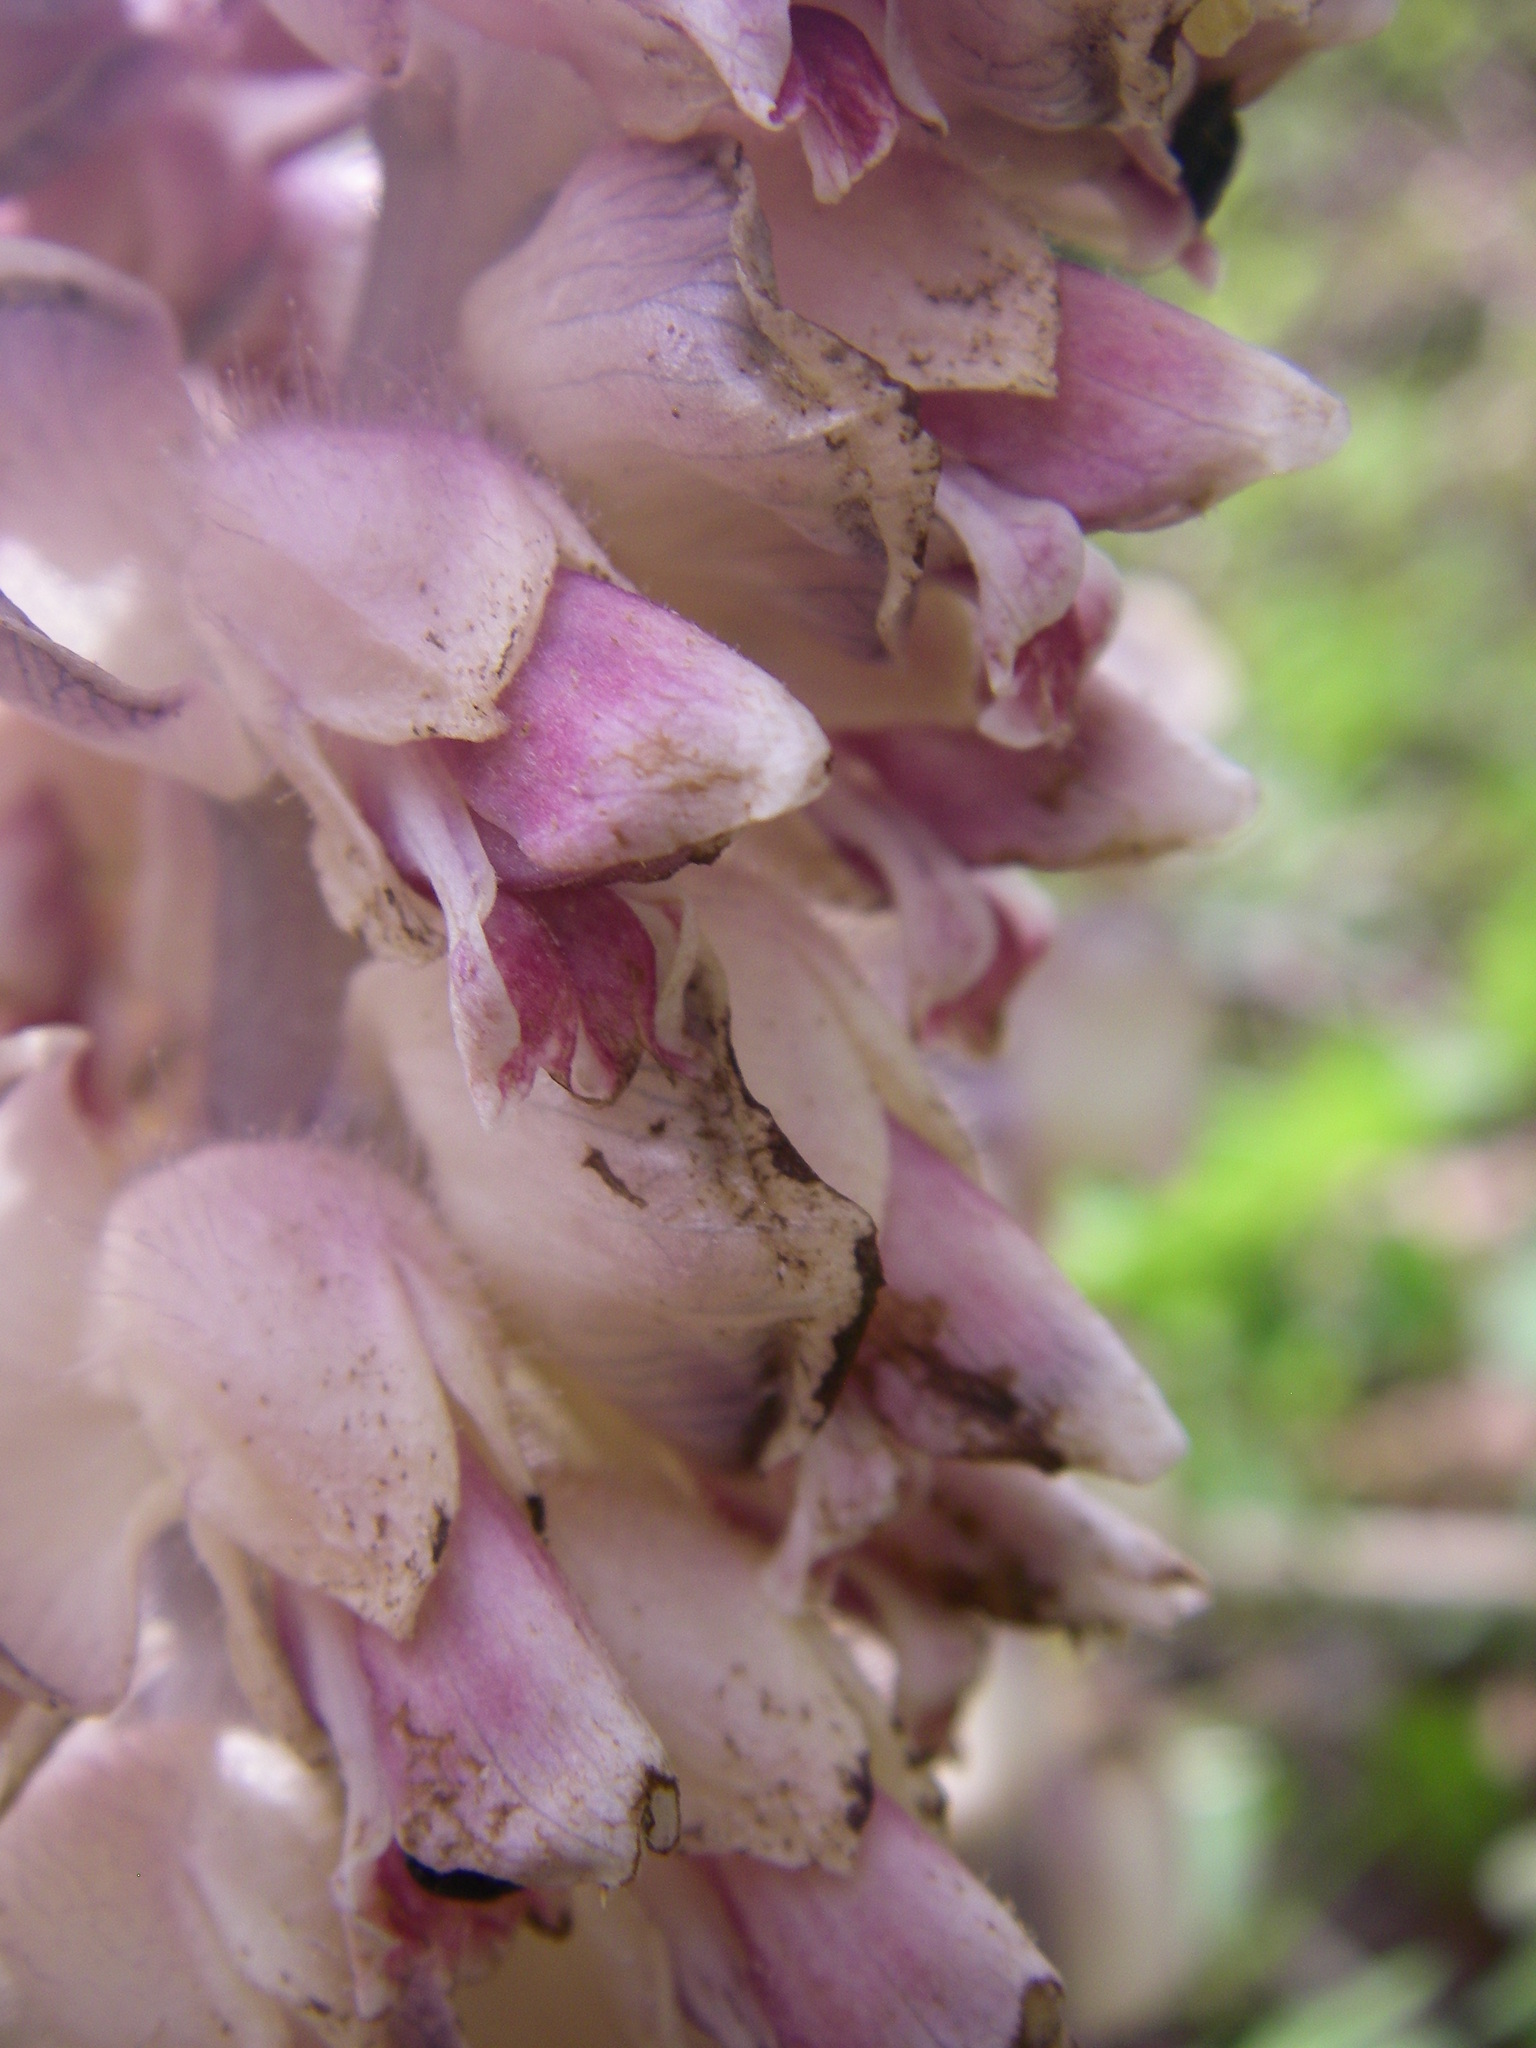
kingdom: Plantae
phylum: Tracheophyta
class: Magnoliopsida
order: Lamiales
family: Orobanchaceae
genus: Lathraea
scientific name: Lathraea squamaria
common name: Toothwort
